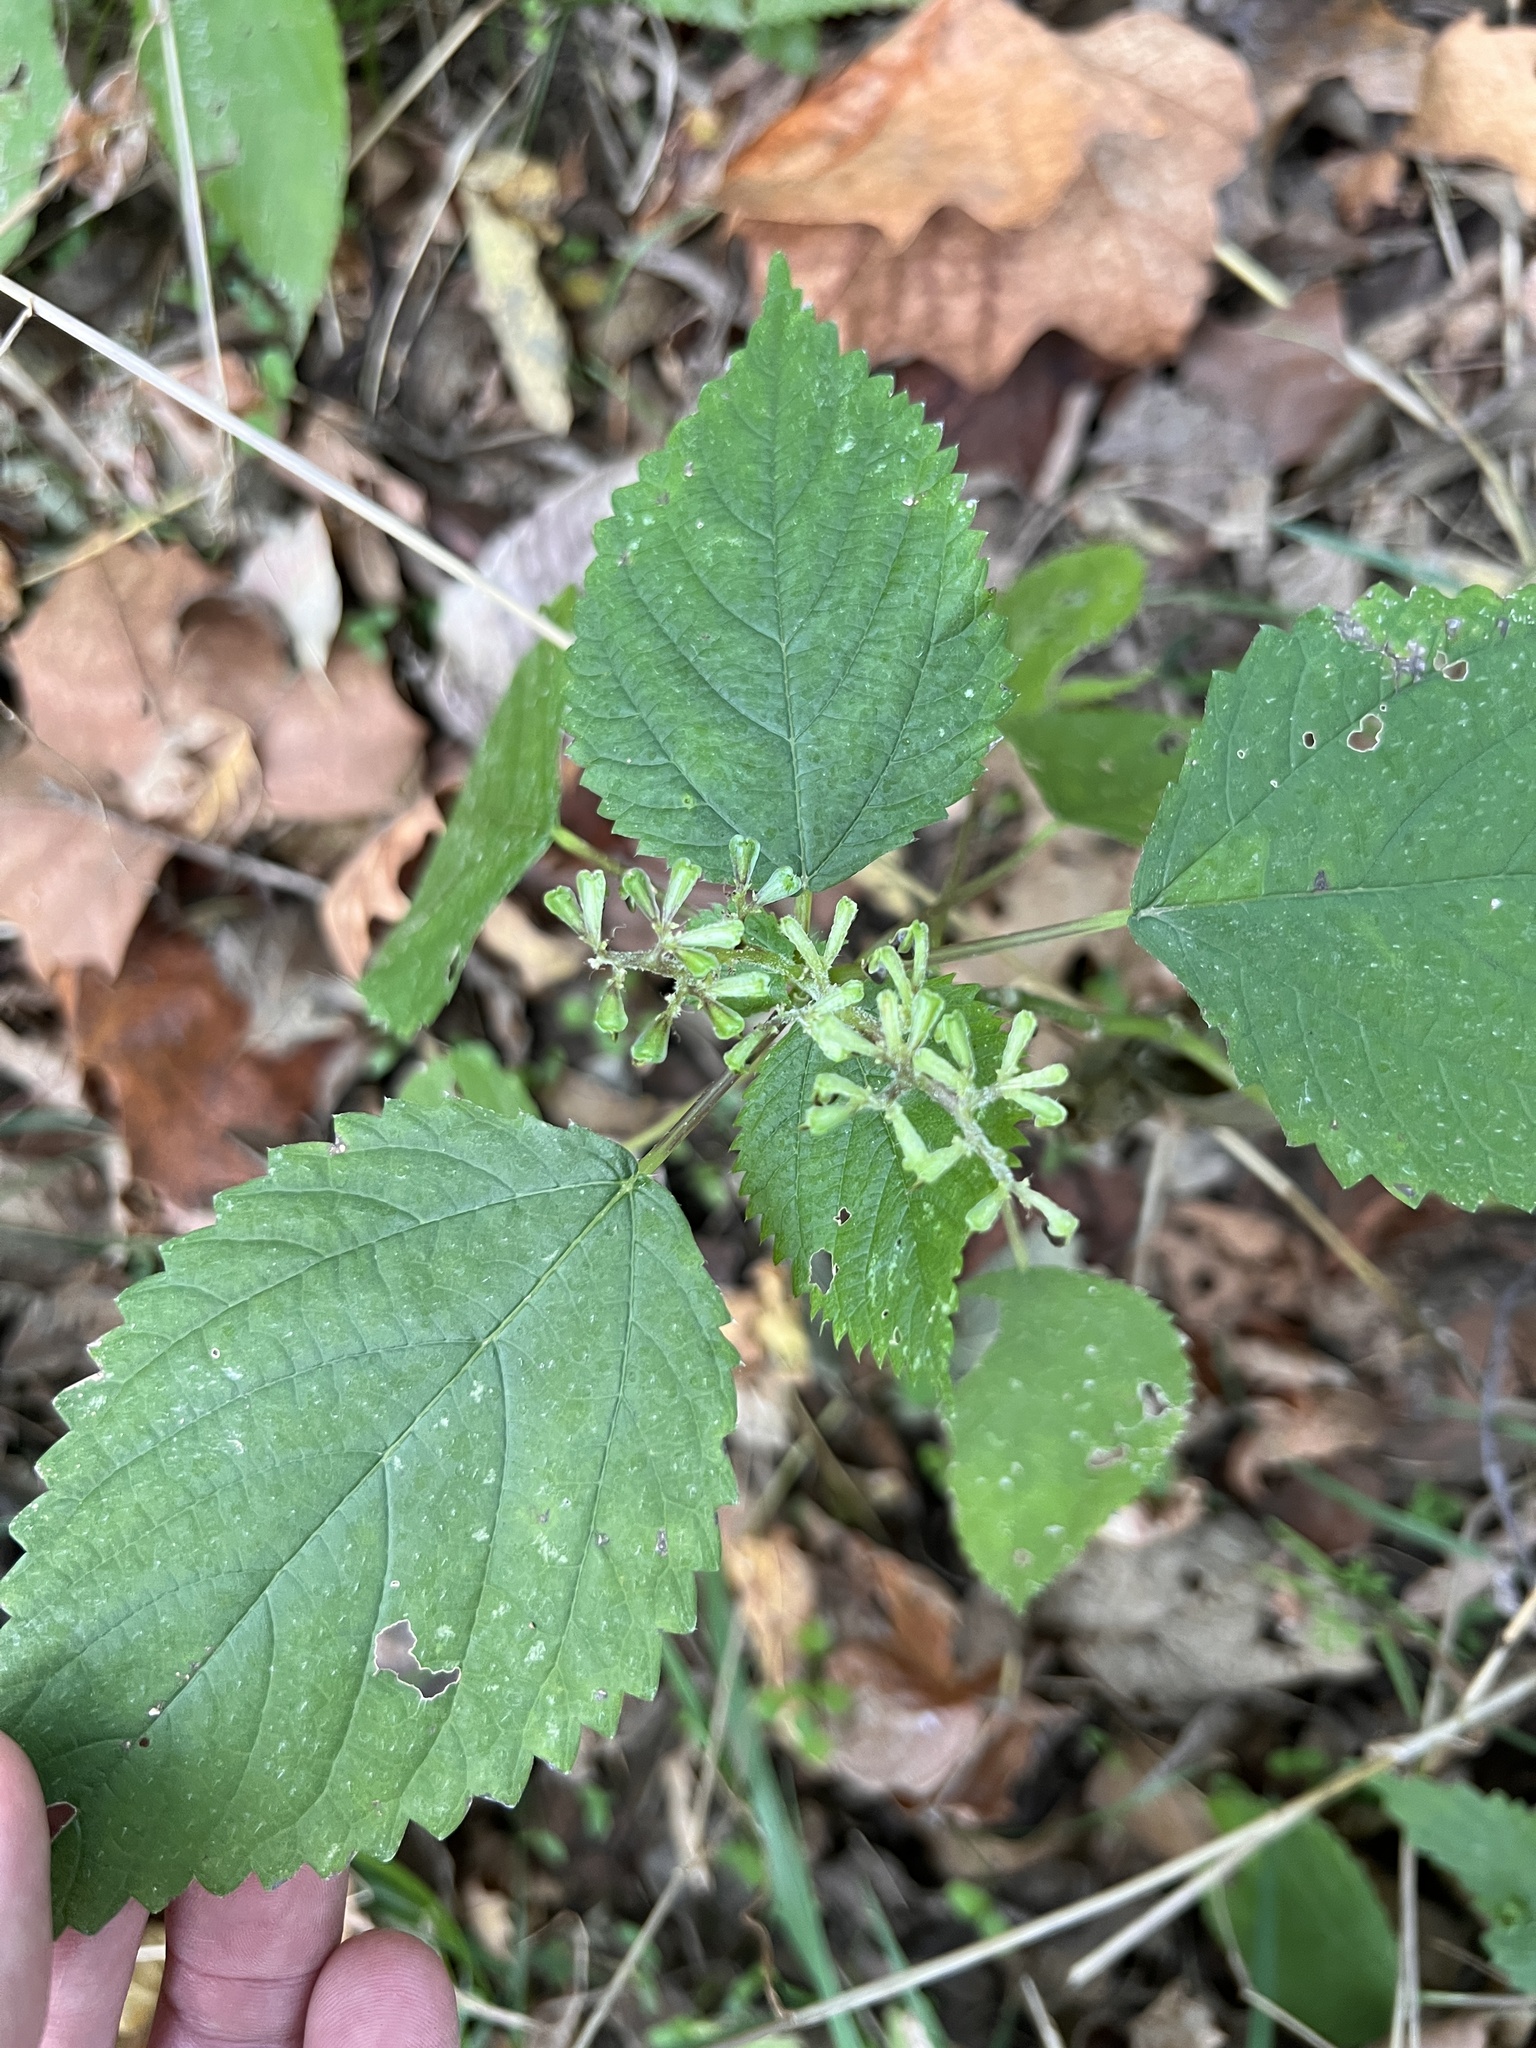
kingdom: Plantae
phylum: Tracheophyta
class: Magnoliopsida
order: Rosales
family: Urticaceae
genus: Laportea
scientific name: Laportea canadensis
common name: Canada nettle
